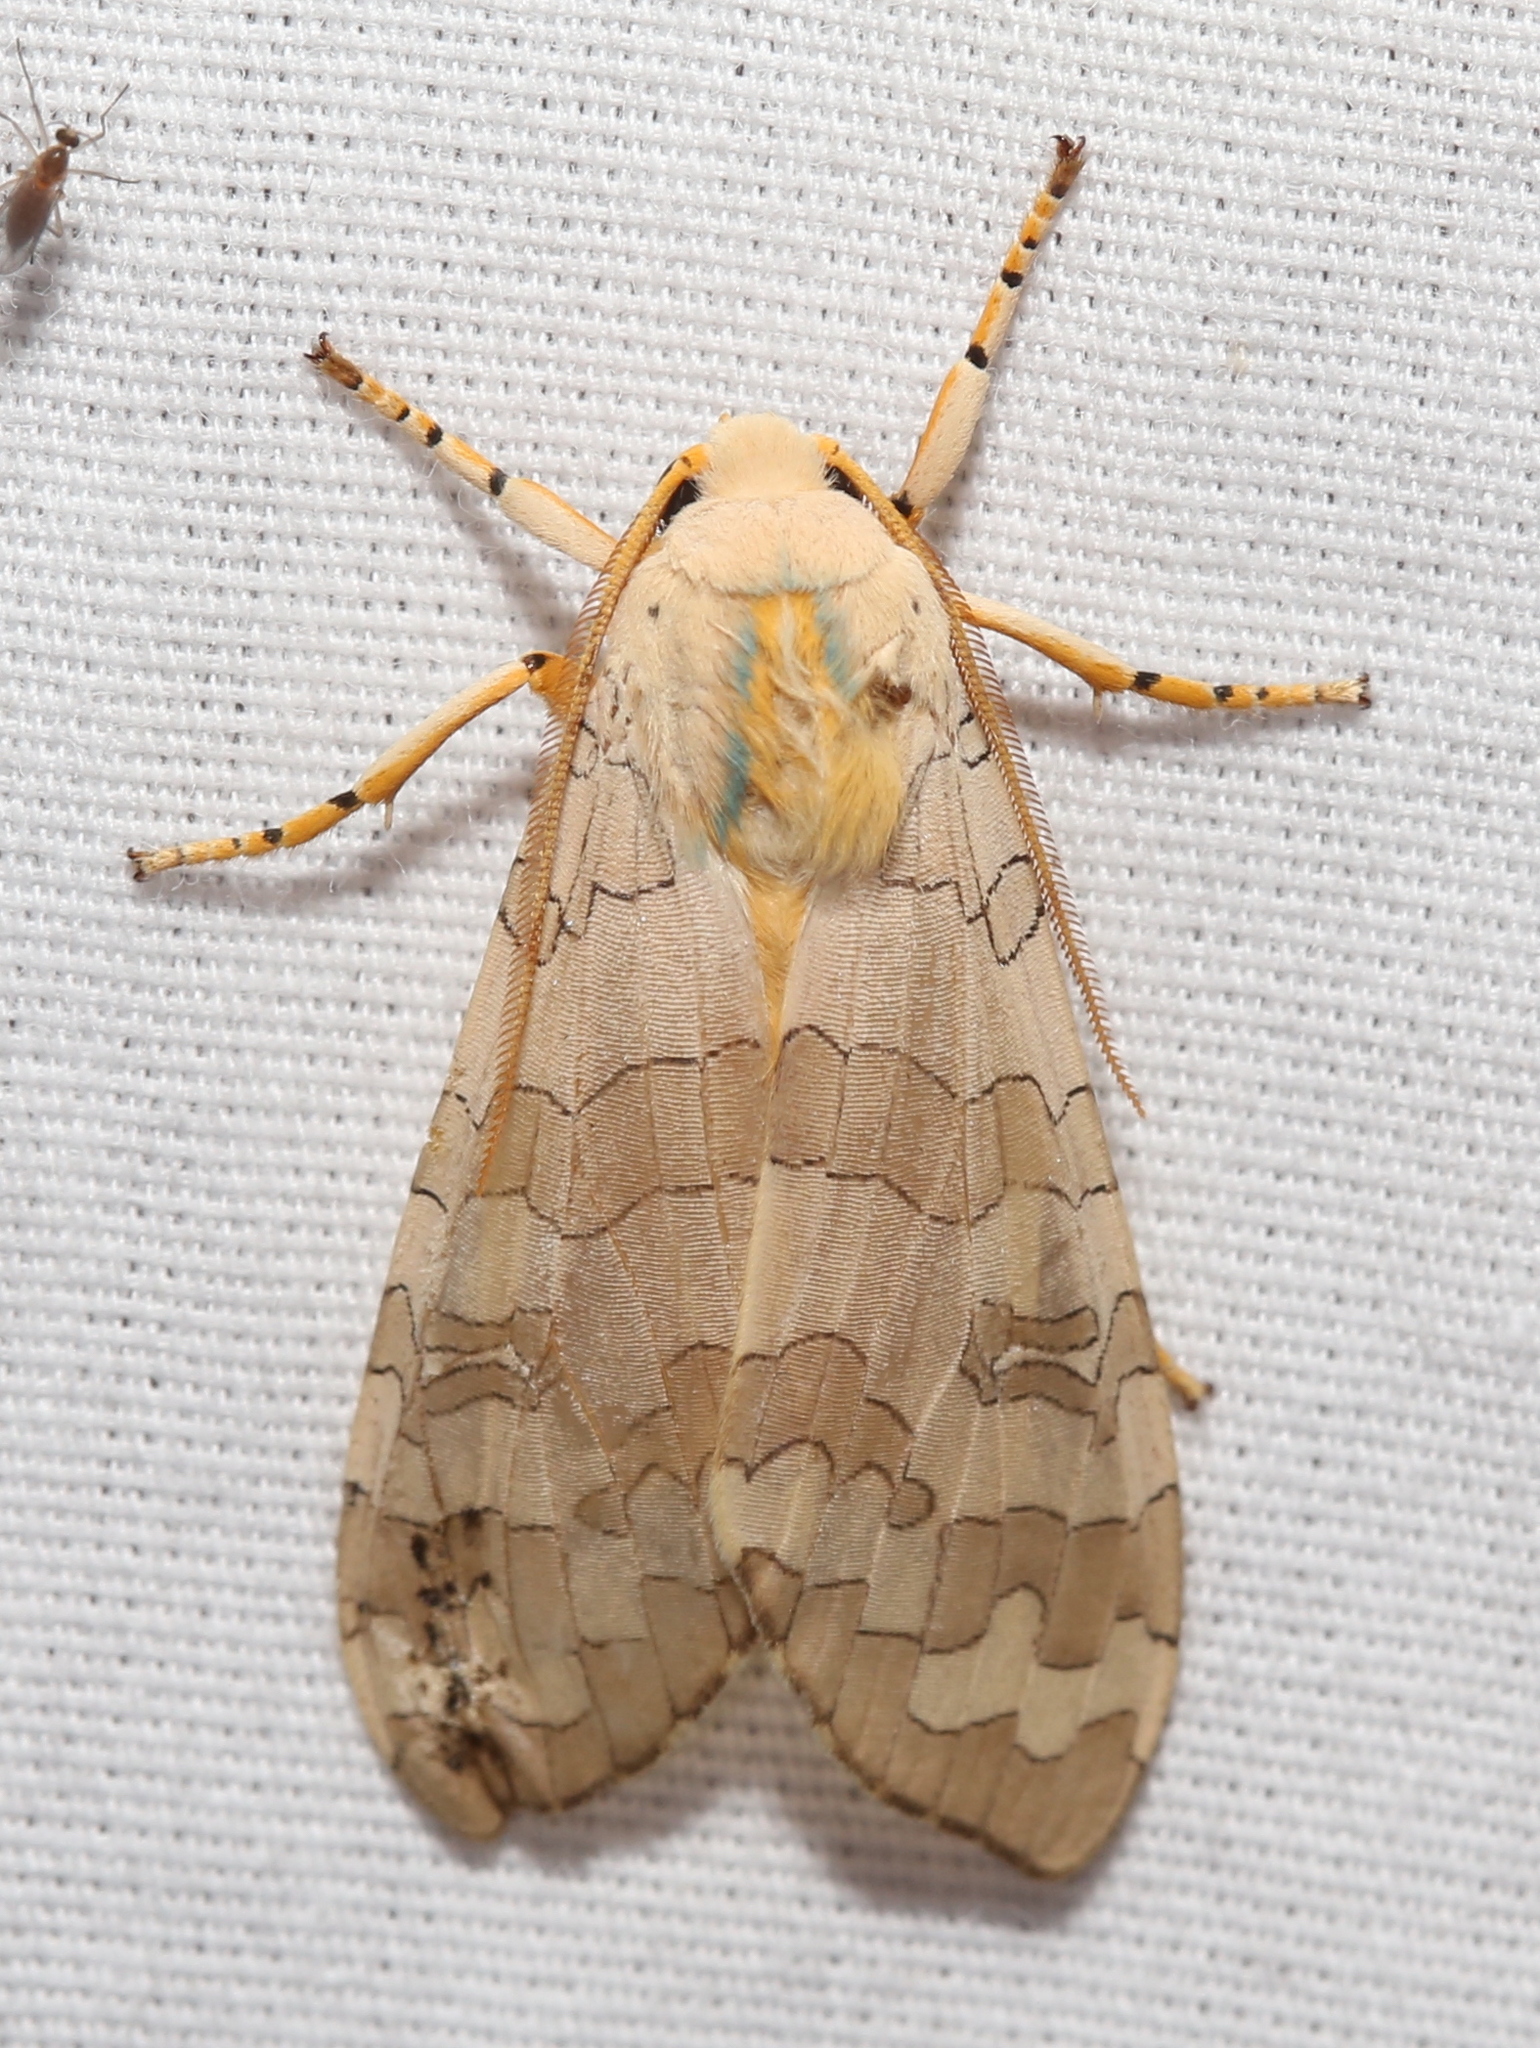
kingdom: Animalia
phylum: Arthropoda
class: Insecta
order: Lepidoptera
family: Erebidae
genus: Halysidota
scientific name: Halysidota
